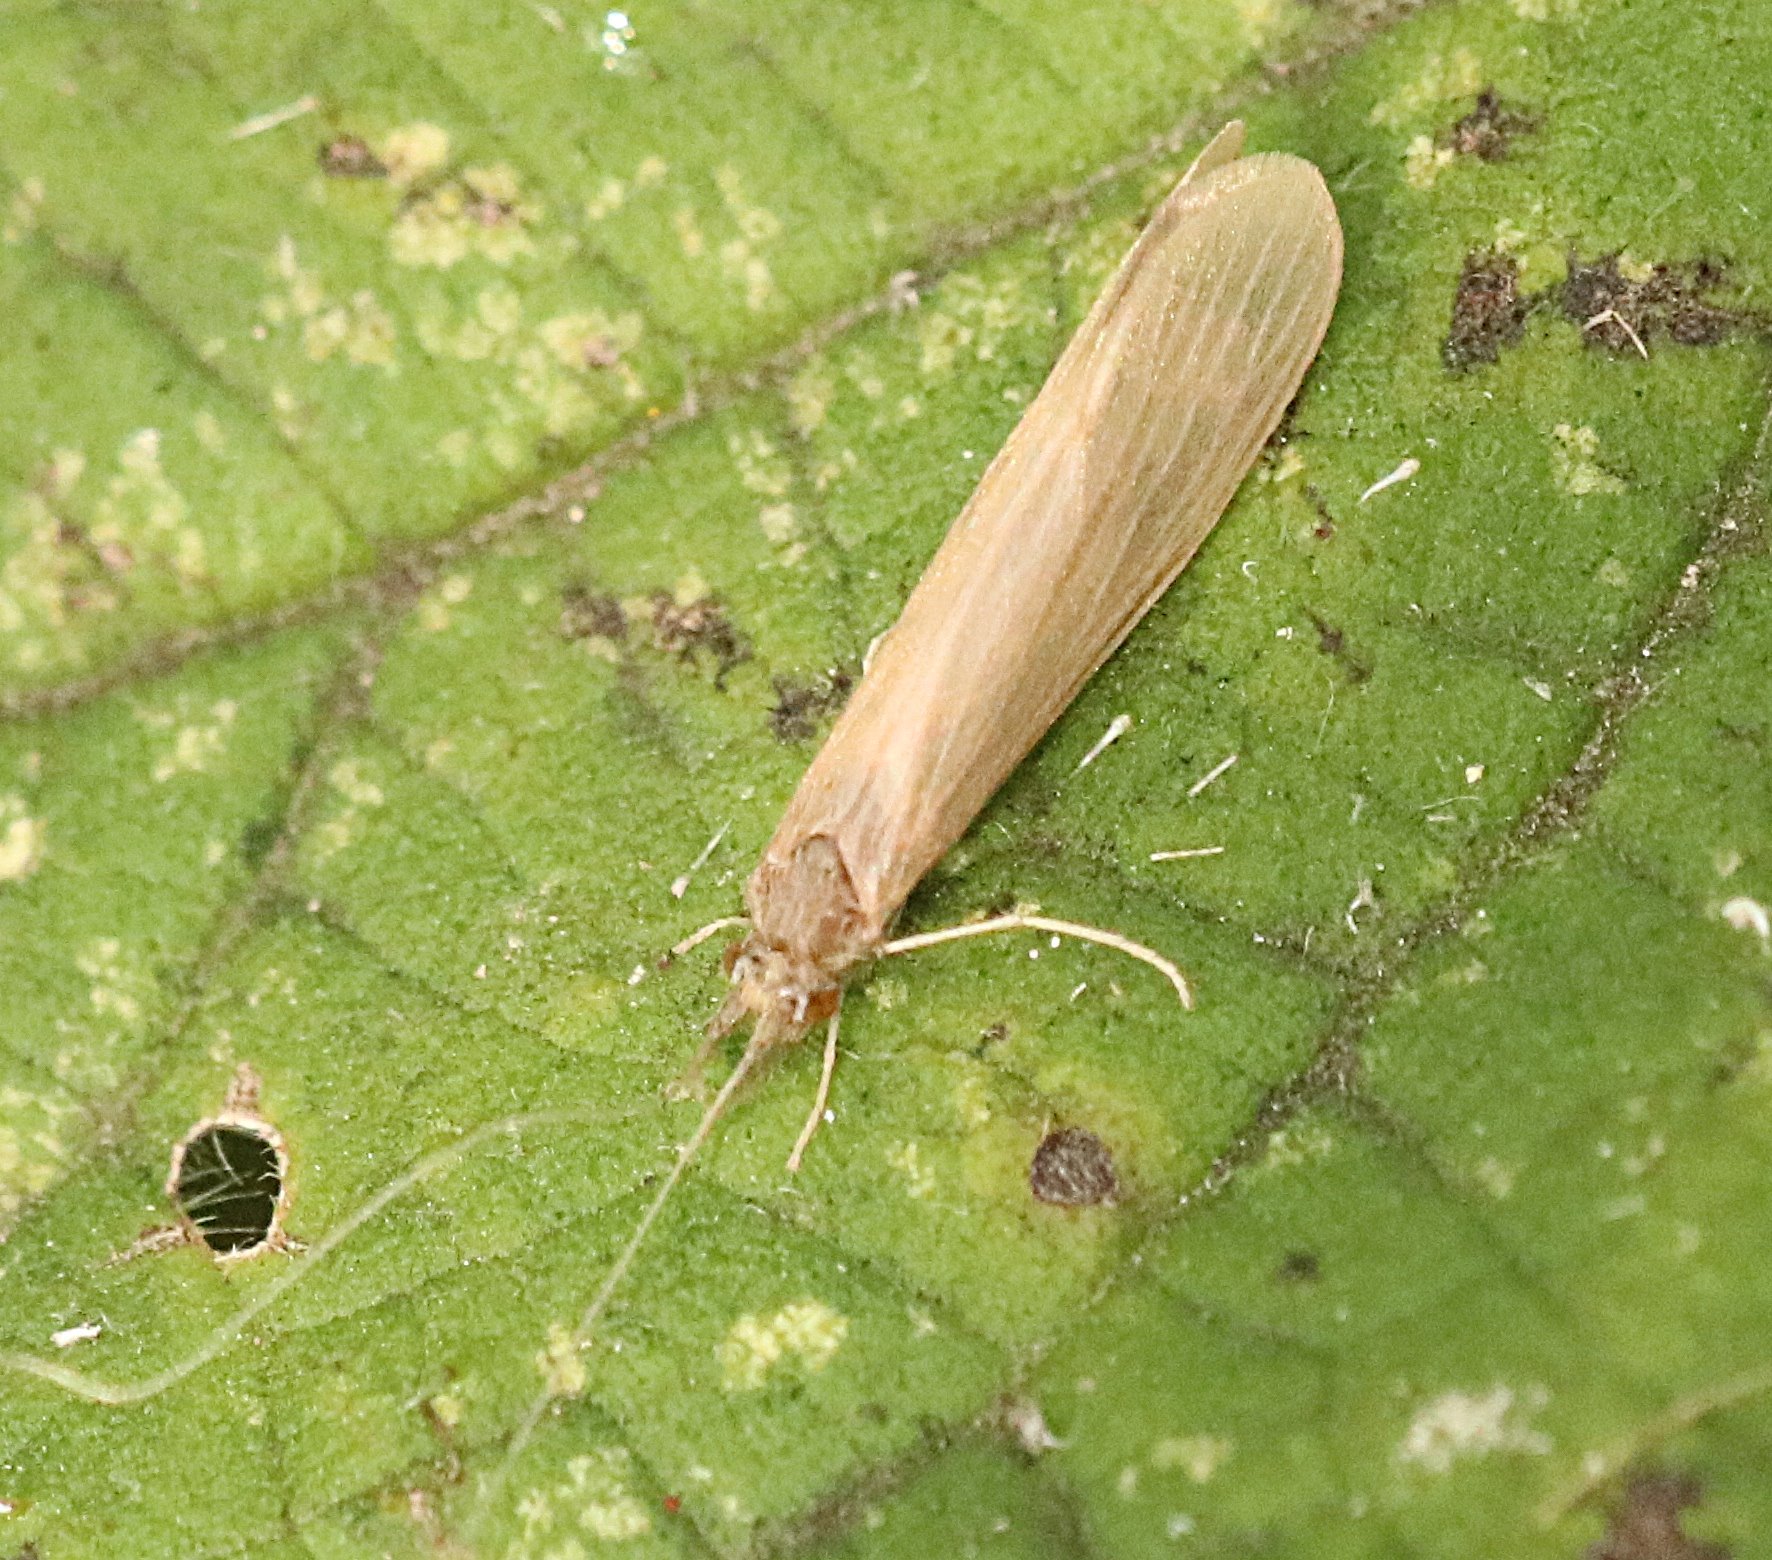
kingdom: Animalia
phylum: Arthropoda
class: Insecta
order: Trichoptera
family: Leptoceridae
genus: Oecetis
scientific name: Oecetis ochracea
